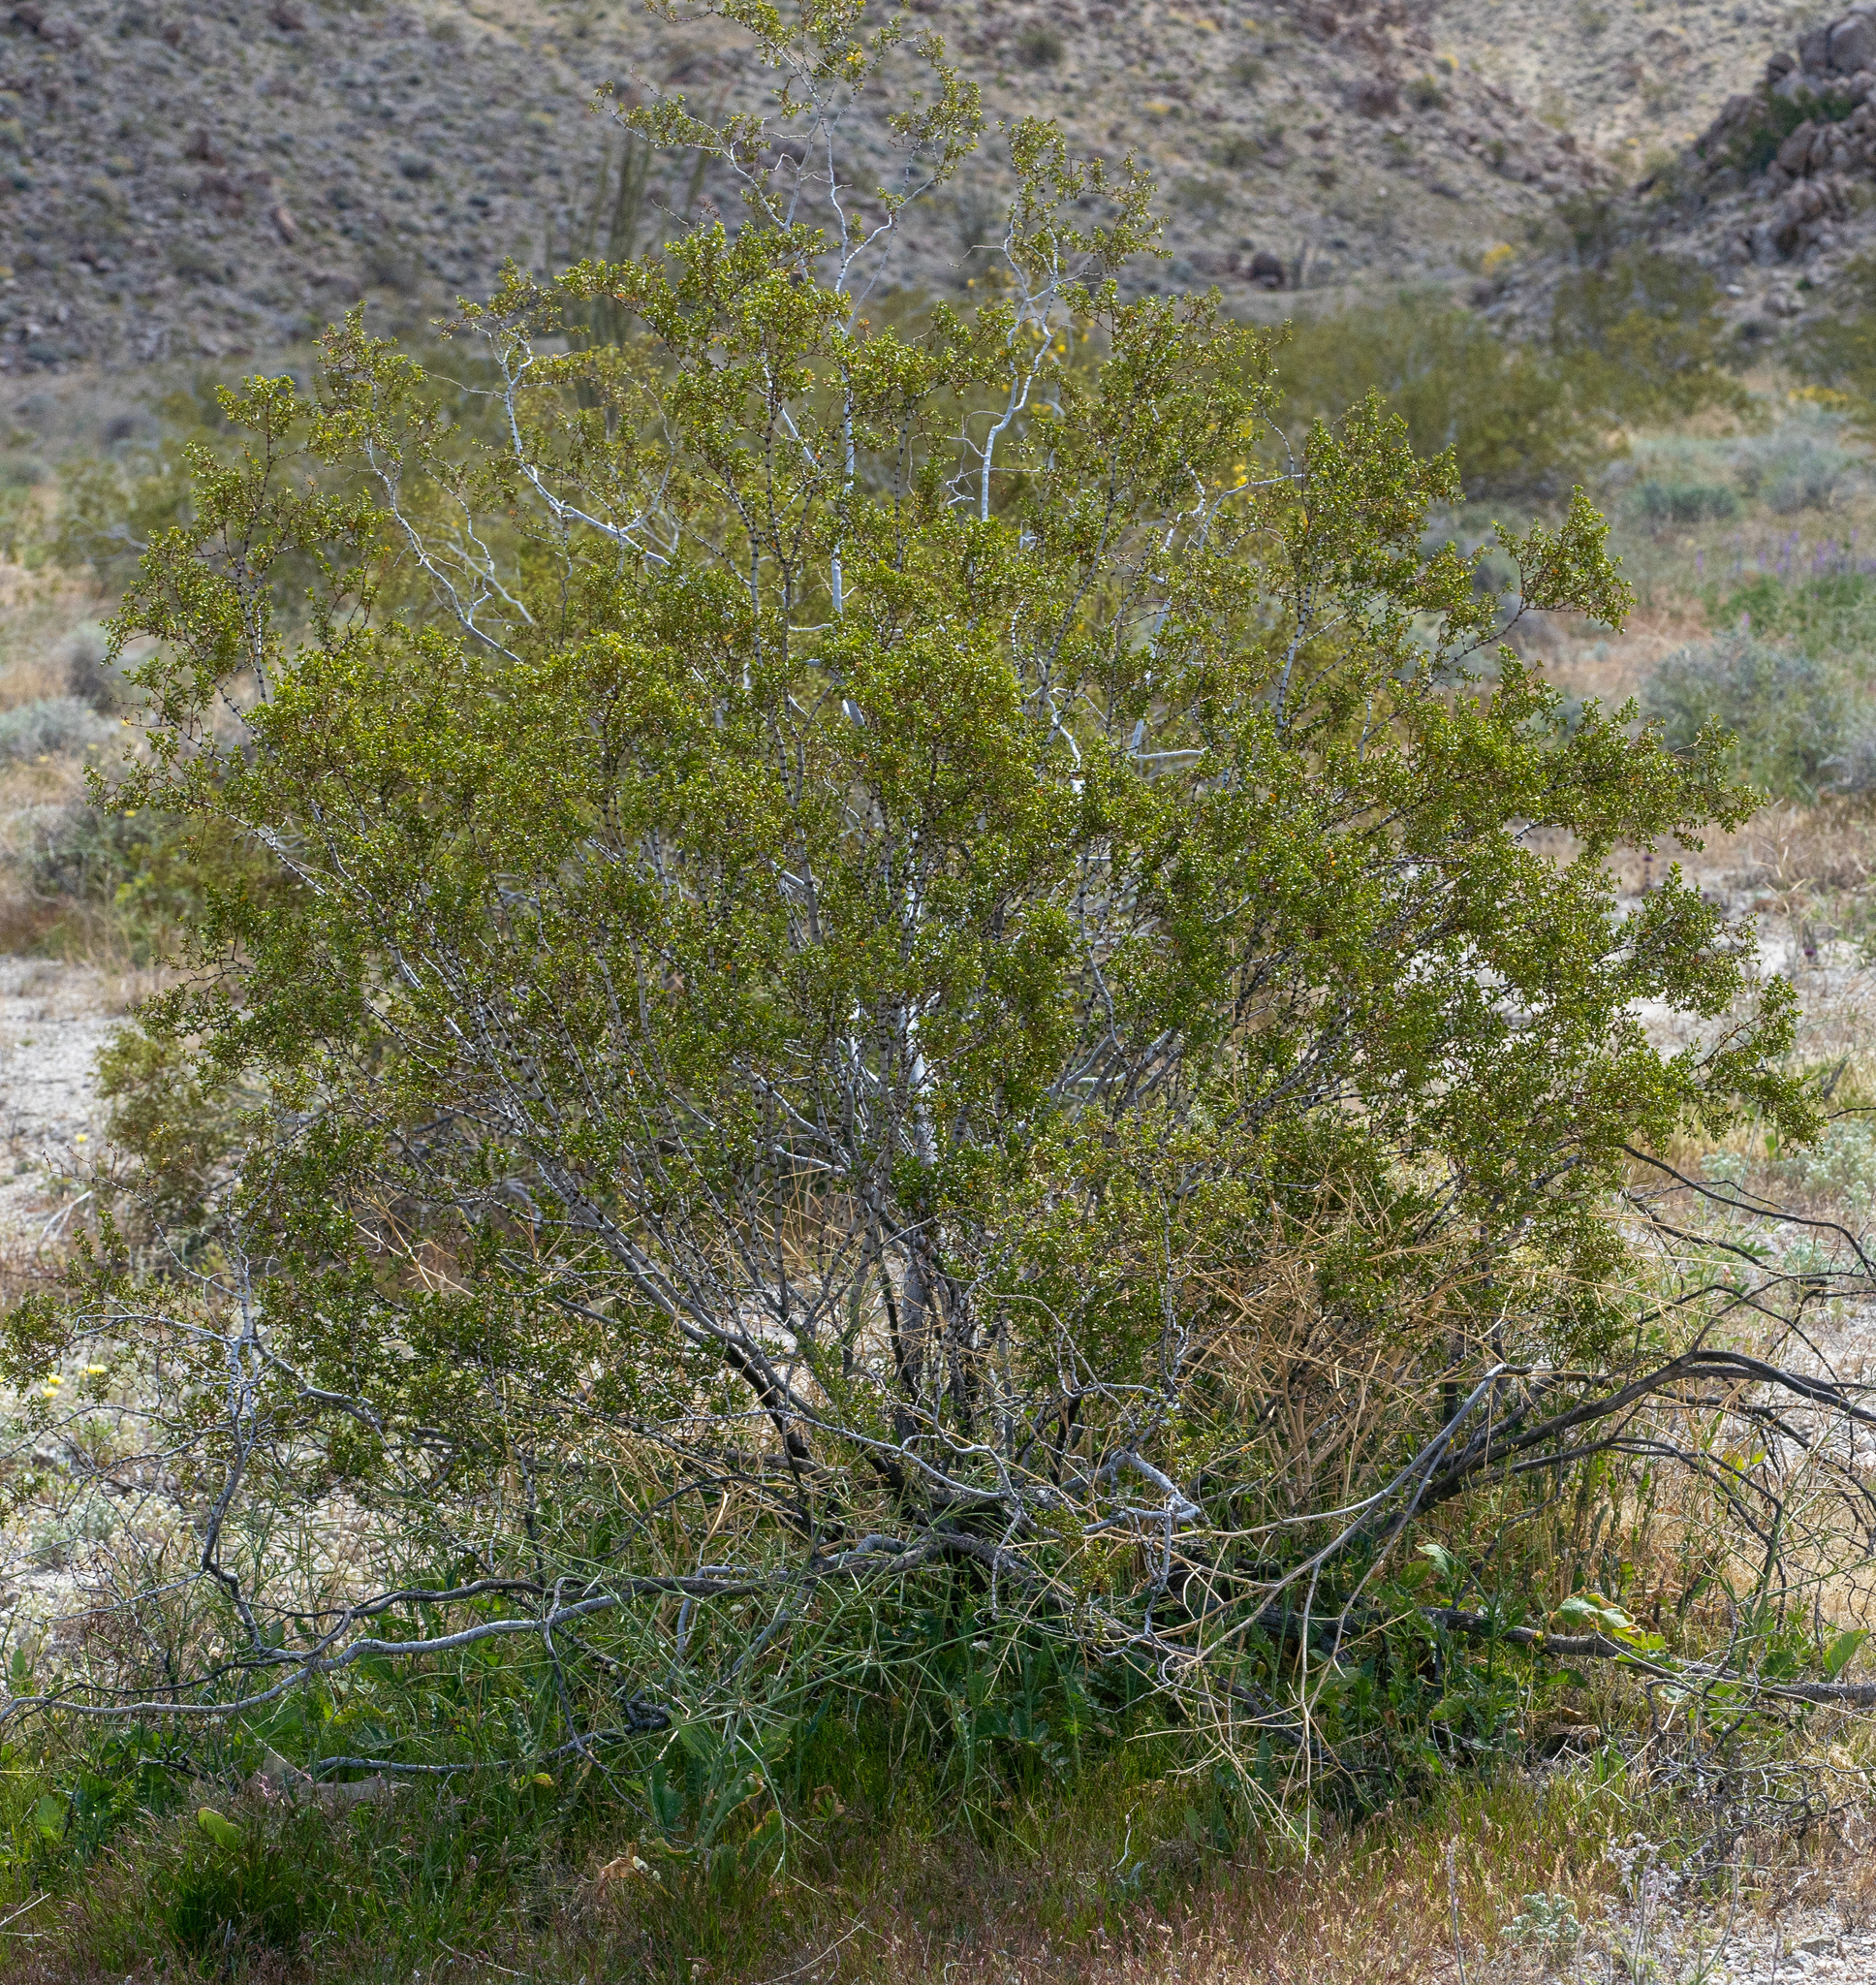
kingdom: Plantae
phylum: Tracheophyta
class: Magnoliopsida
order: Zygophyllales
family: Zygophyllaceae
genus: Larrea
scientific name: Larrea tridentata
